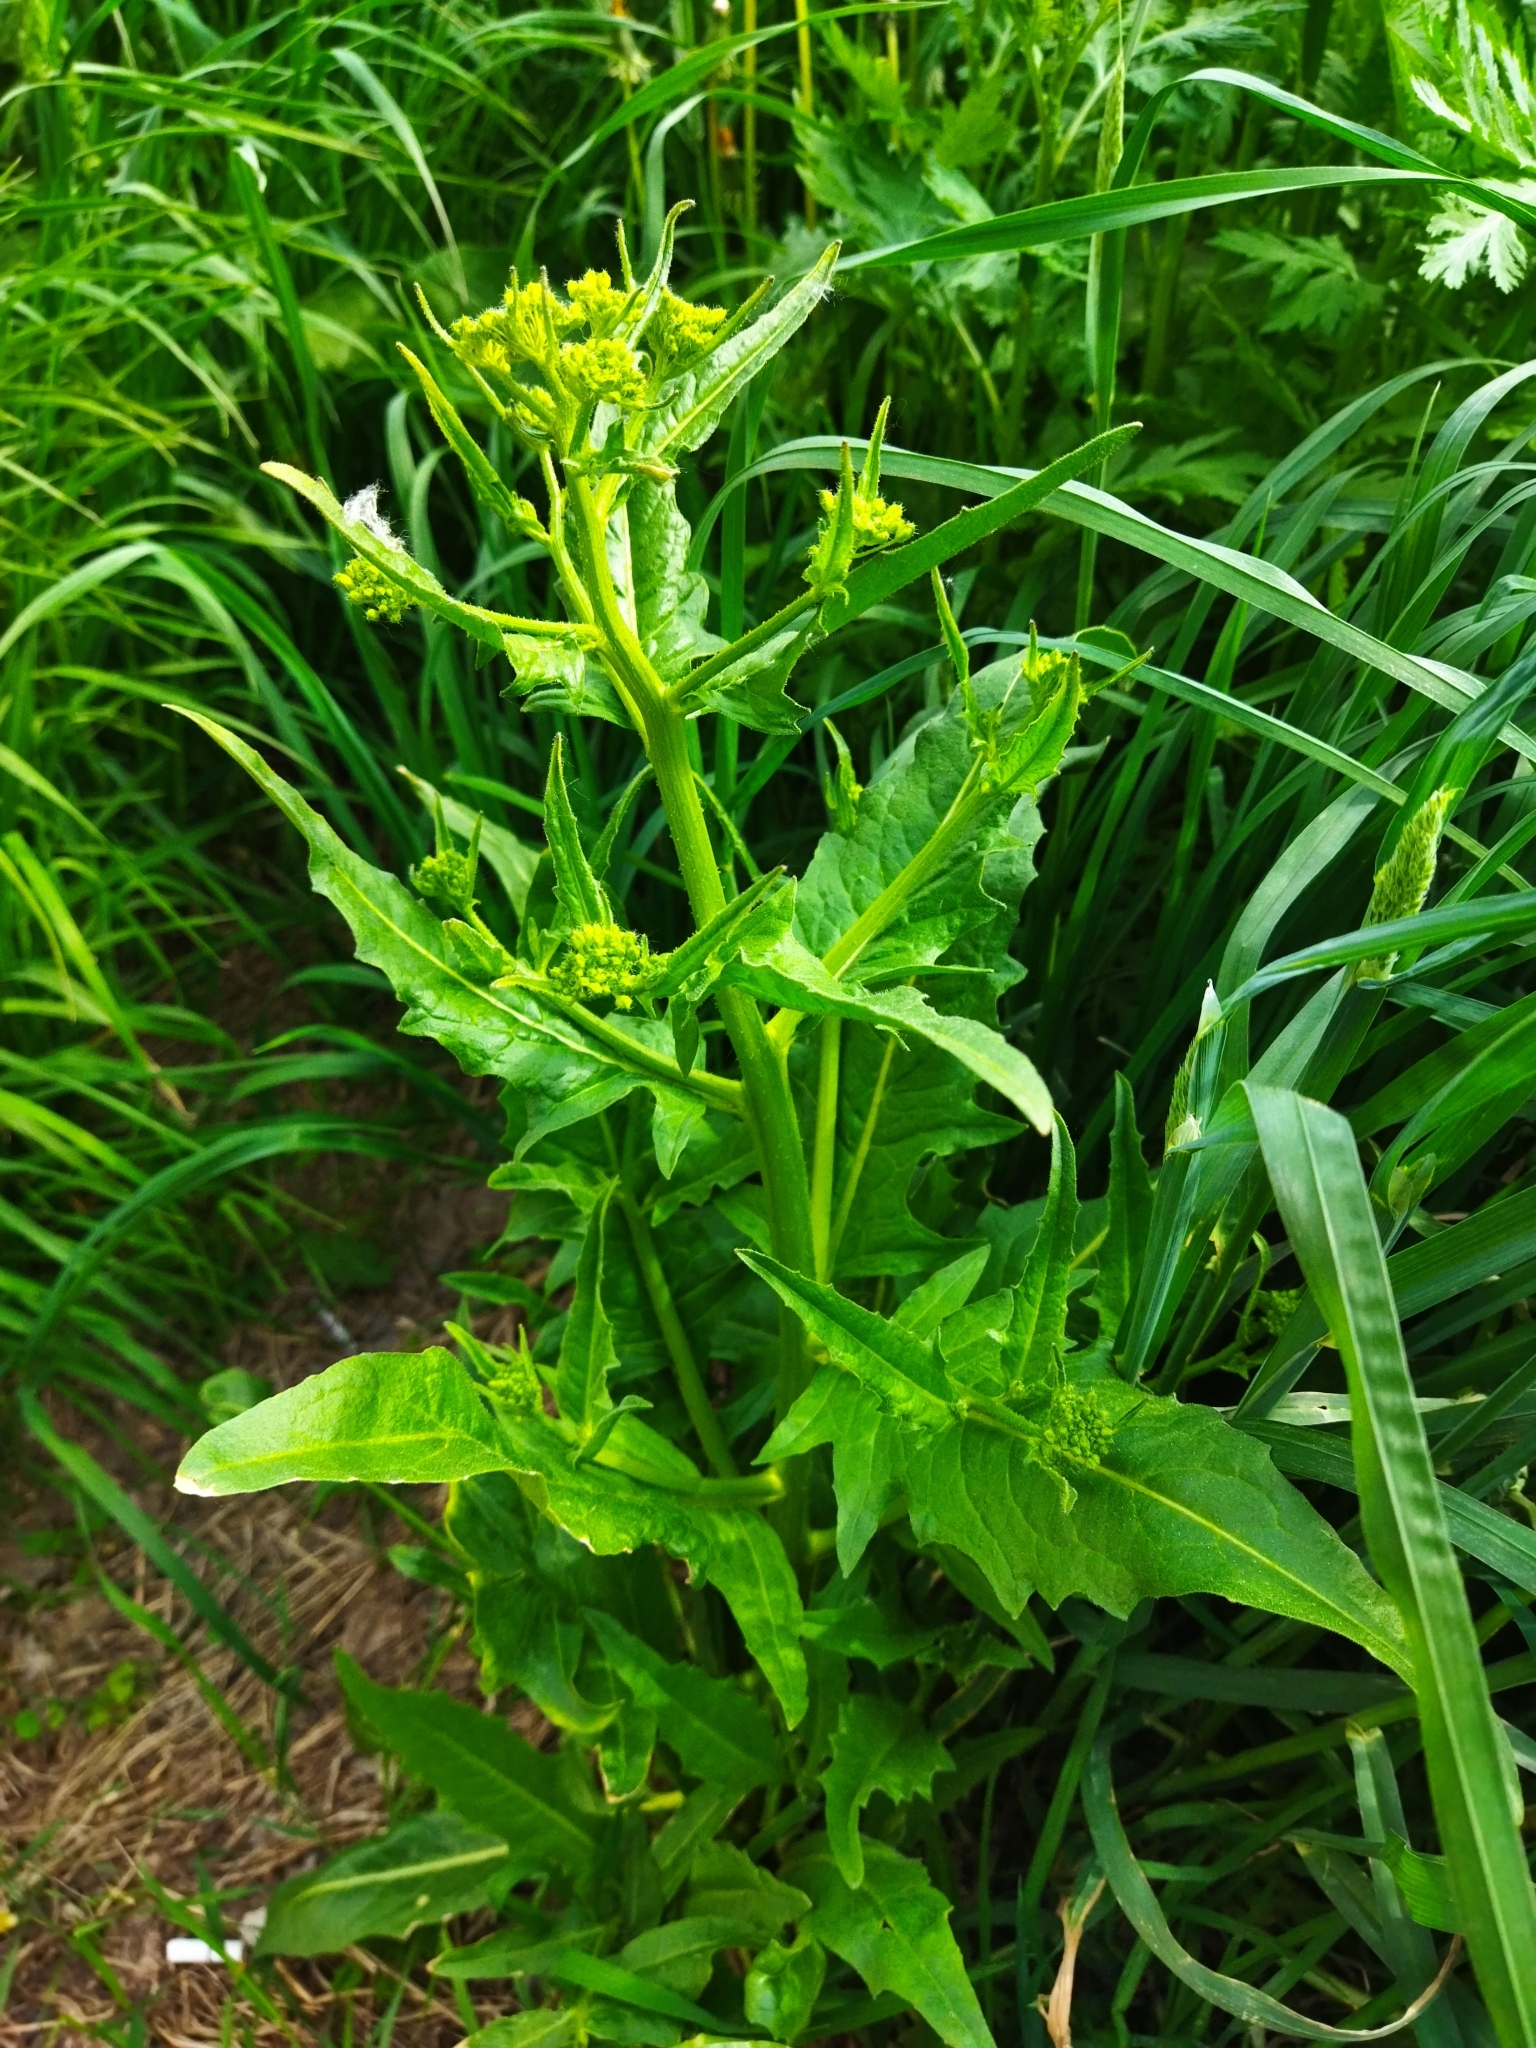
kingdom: Plantae
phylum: Tracheophyta
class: Magnoliopsida
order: Brassicales
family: Brassicaceae
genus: Bunias
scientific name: Bunias orientalis
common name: Warty-cabbage
